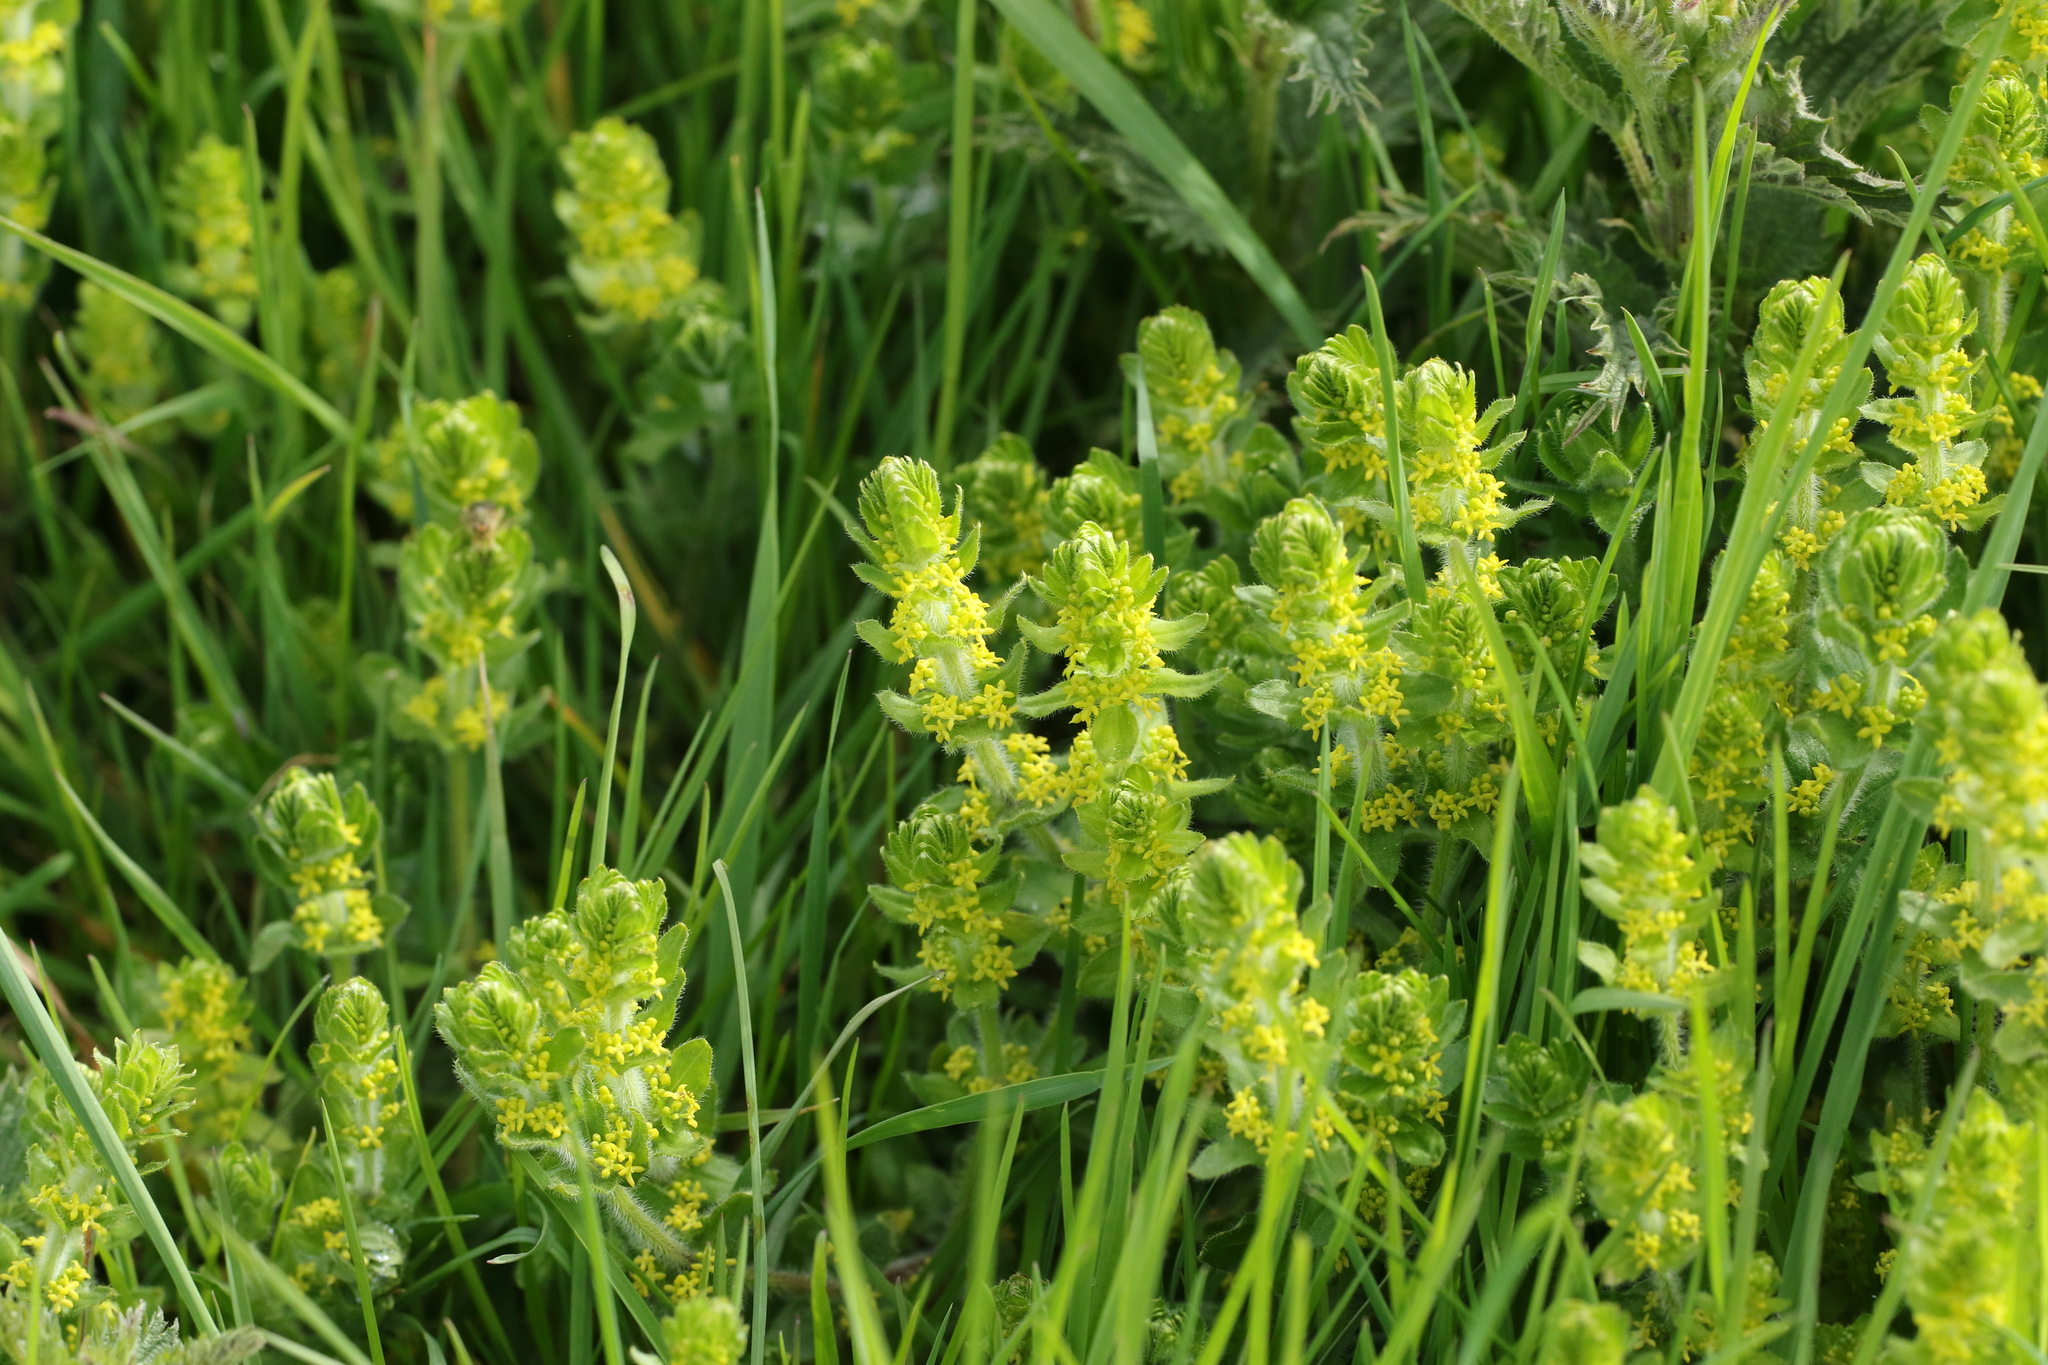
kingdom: Plantae
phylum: Tracheophyta
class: Magnoliopsida
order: Gentianales
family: Rubiaceae
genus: Cruciata
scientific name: Cruciata laevipes
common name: Crosswort
